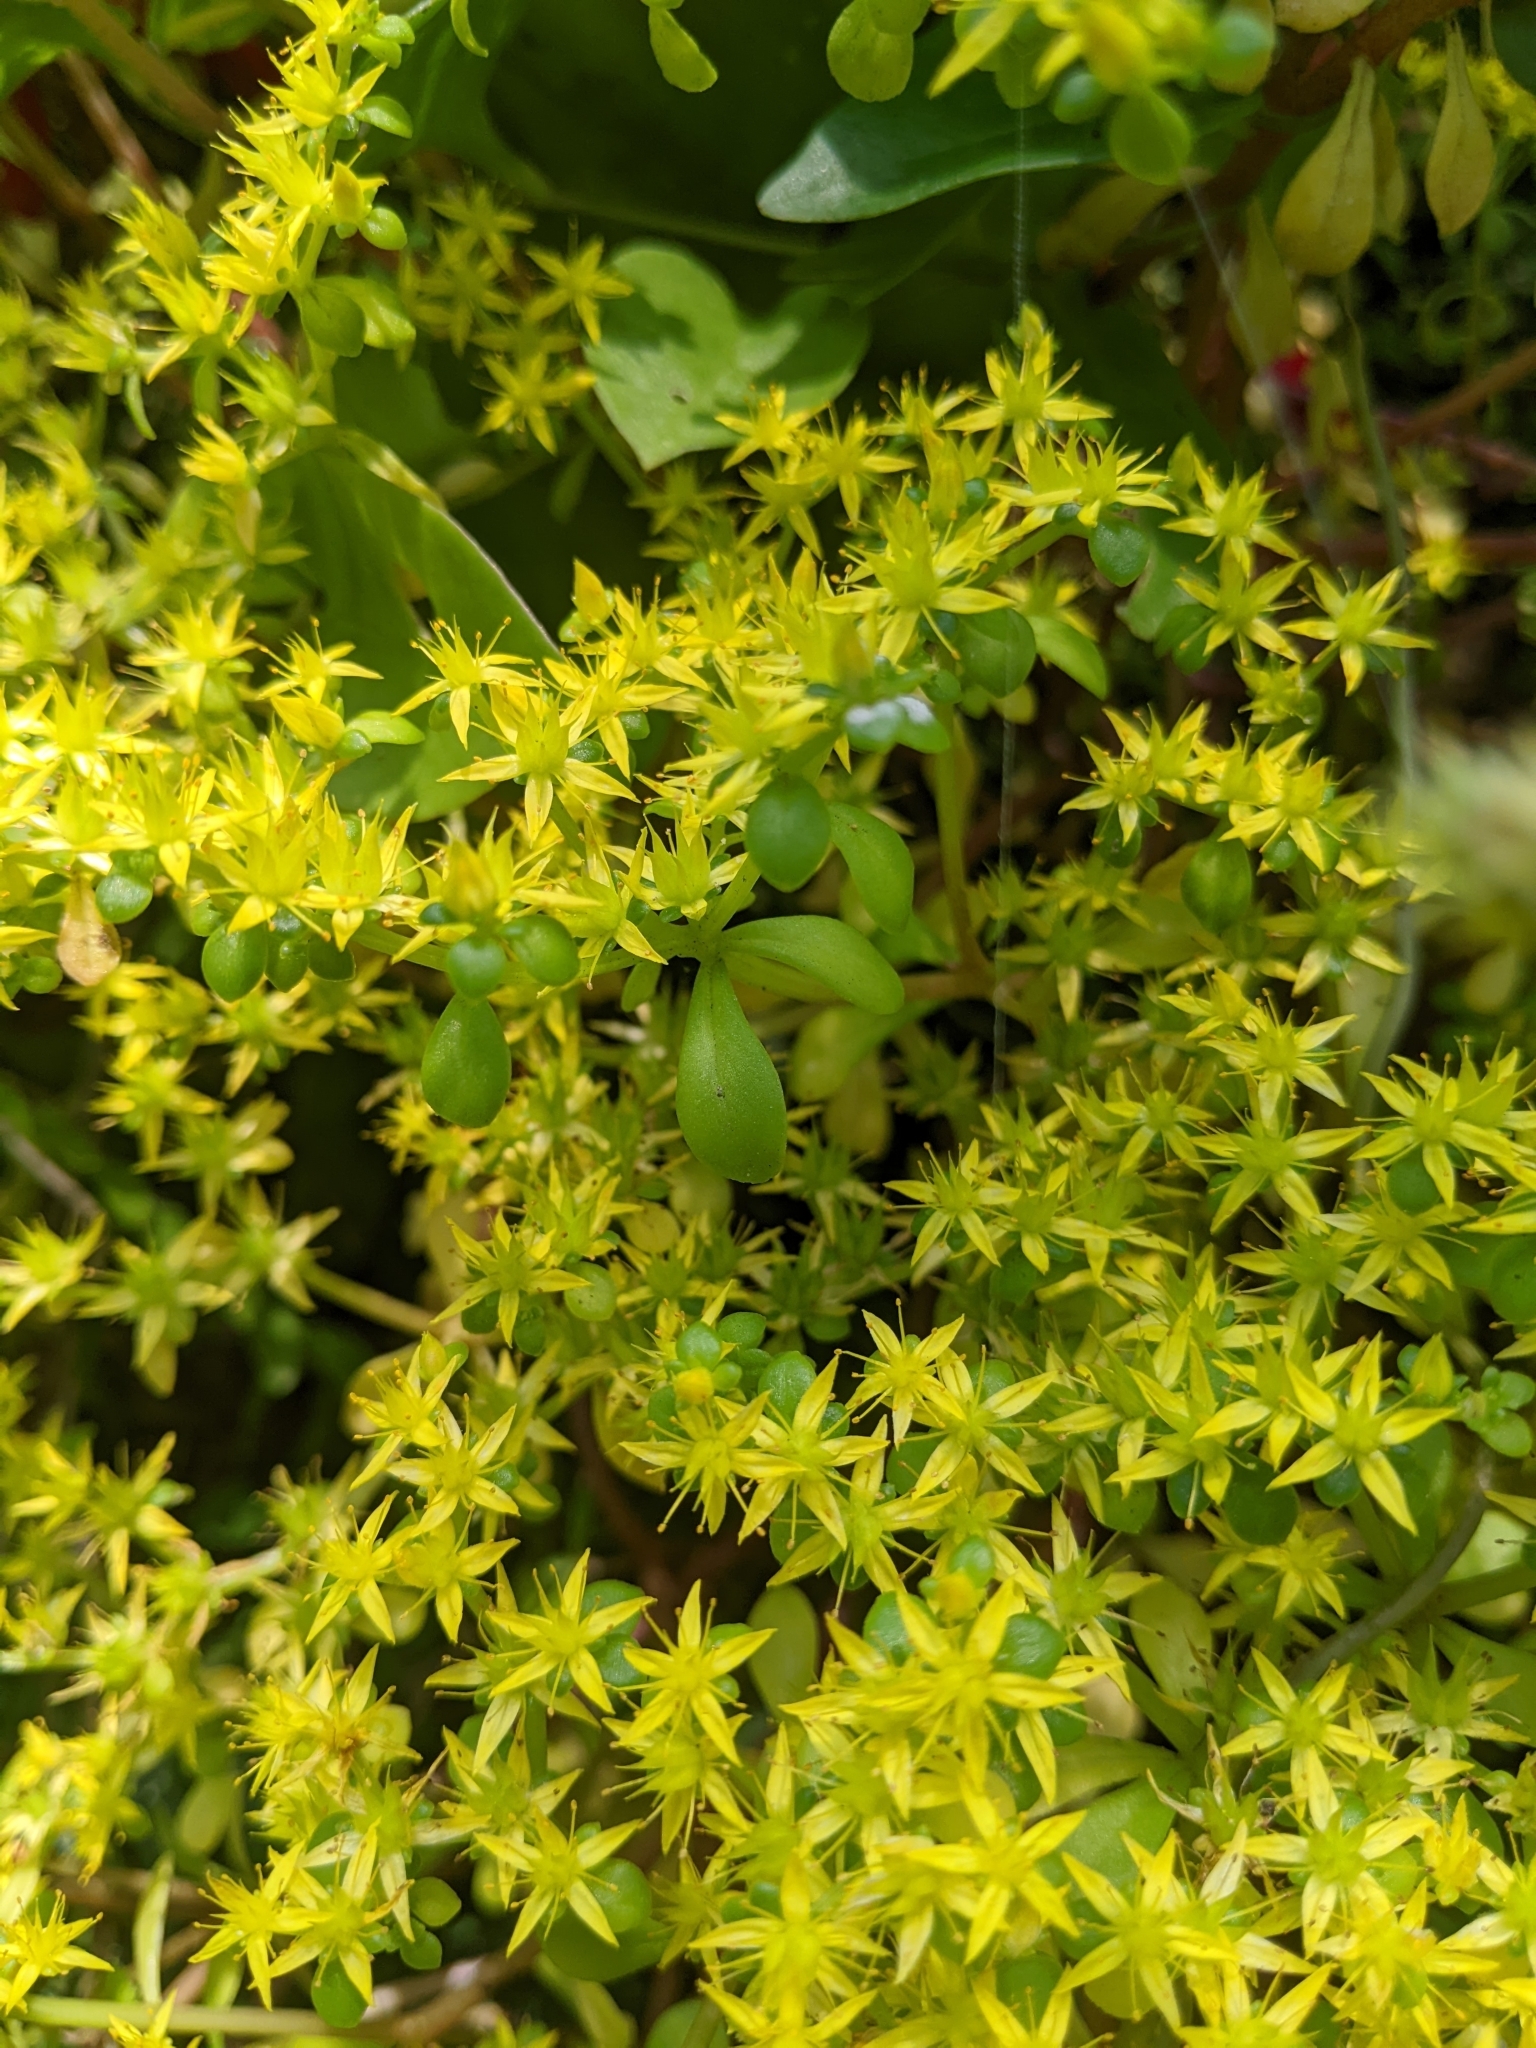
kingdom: Plantae
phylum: Tracheophyta
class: Magnoliopsida
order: Saxifragales
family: Crassulaceae
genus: Sedum
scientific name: Sedum formosanum
